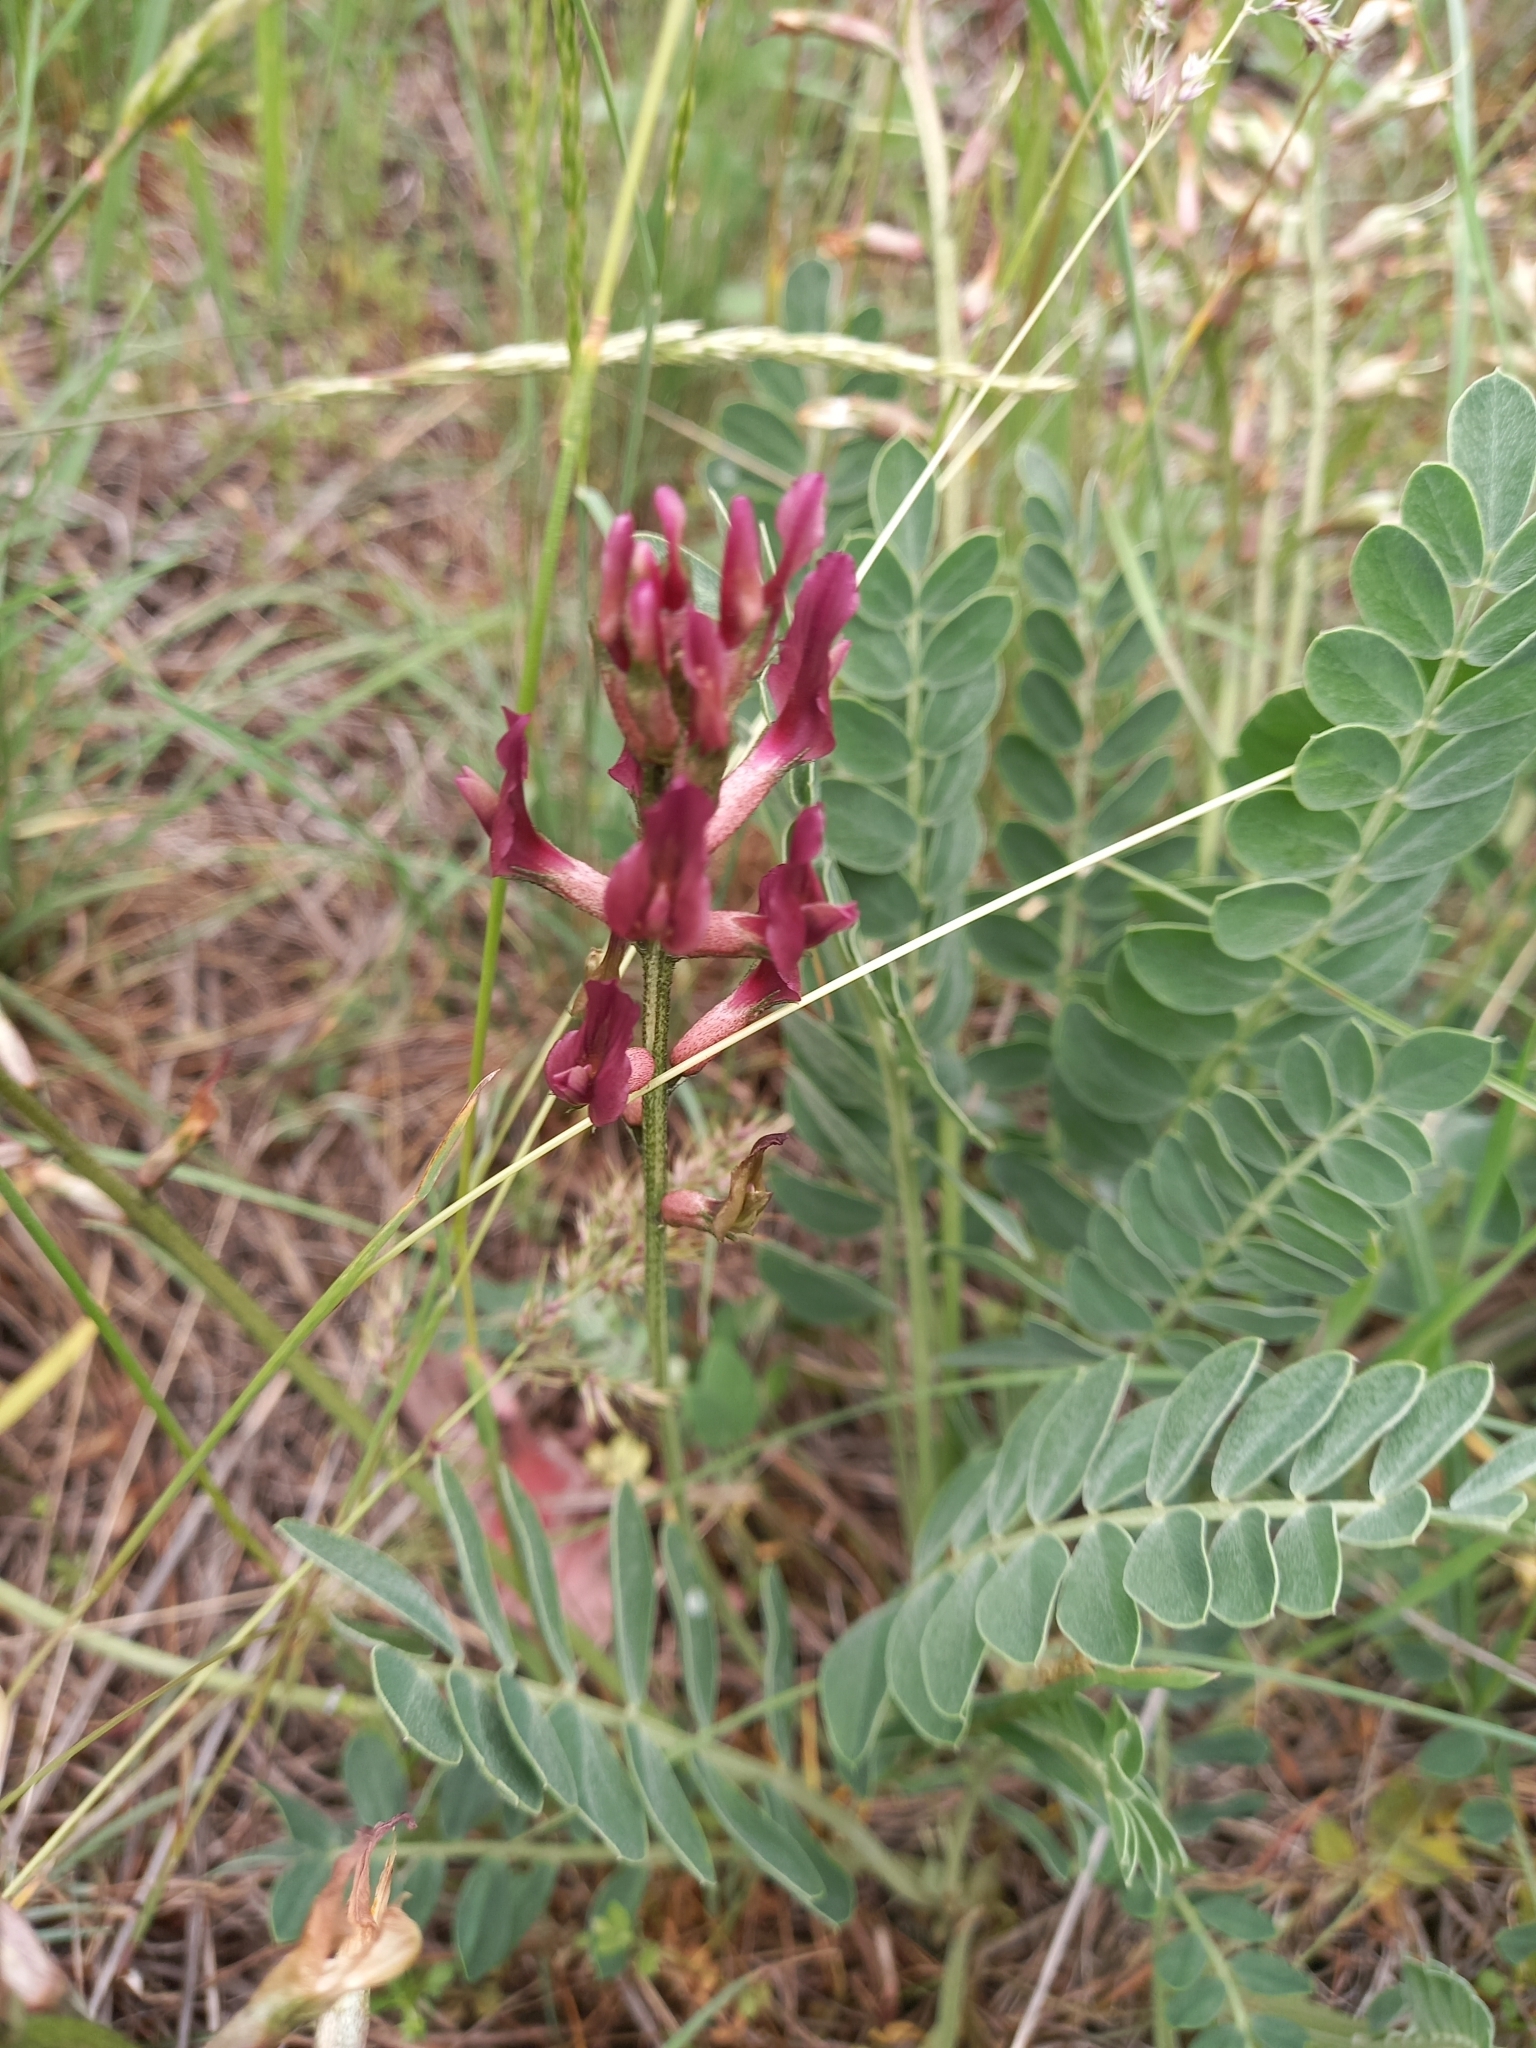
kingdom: Plantae
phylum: Tracheophyta
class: Magnoliopsida
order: Fabales
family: Fabaceae
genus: Astragalus
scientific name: Astragalus brachycarpus
